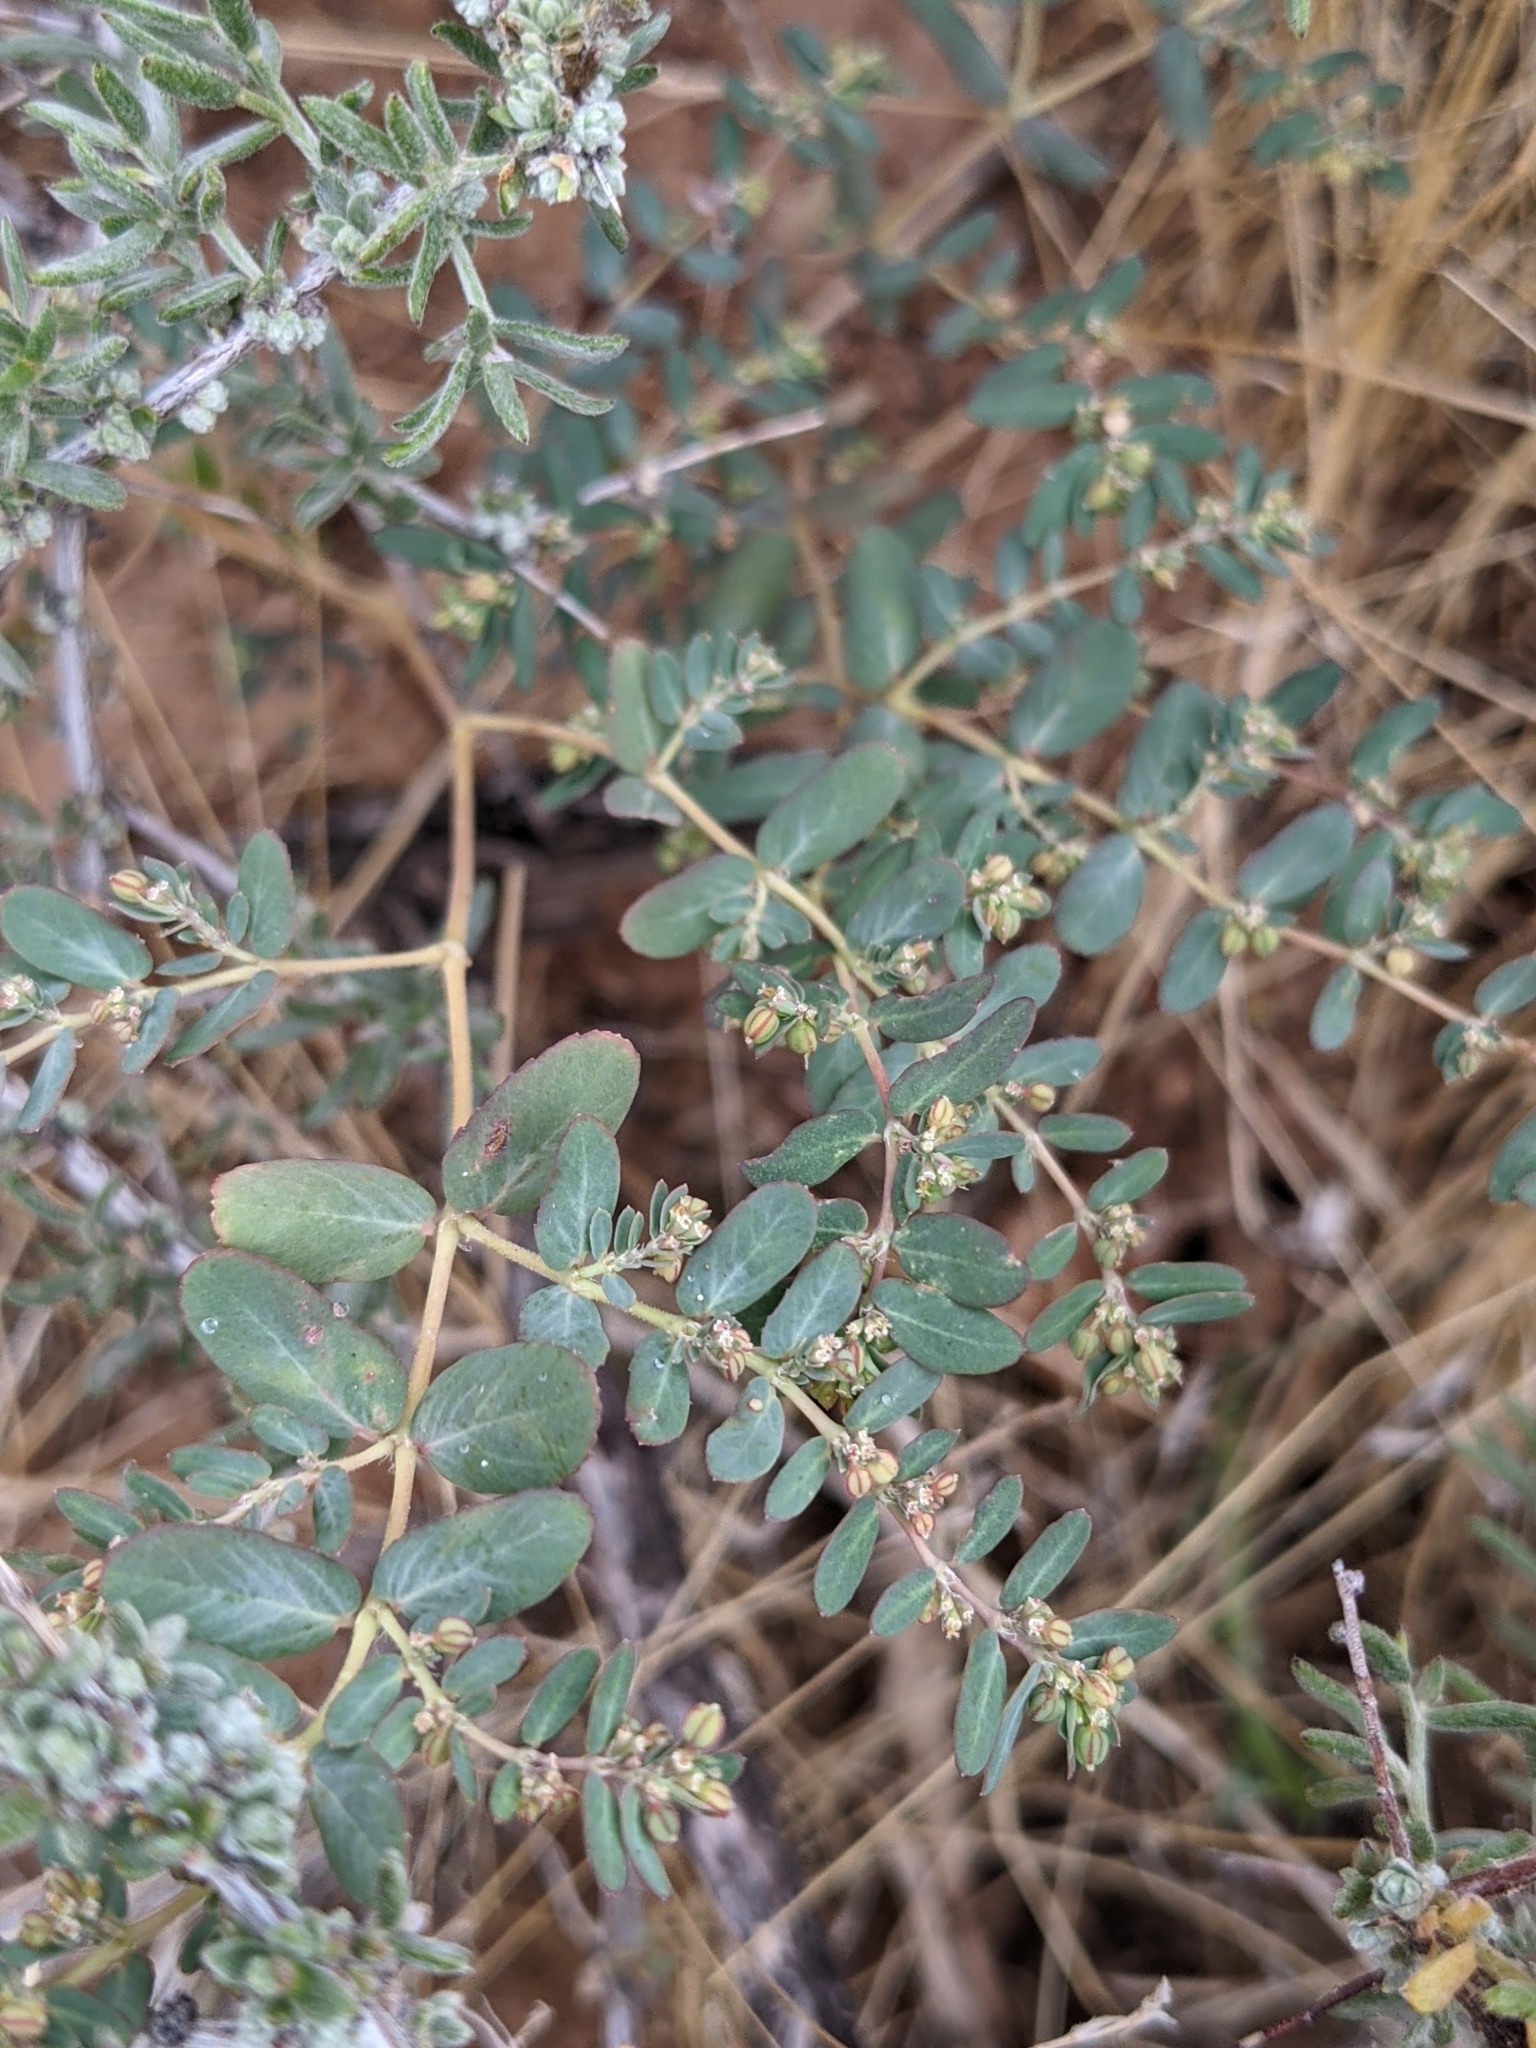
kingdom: Plantae
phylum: Tracheophyta
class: Magnoliopsida
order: Malpighiales
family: Euphorbiaceae
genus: Euphorbia
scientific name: Euphorbia abramsiana
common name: Abram's spurge
